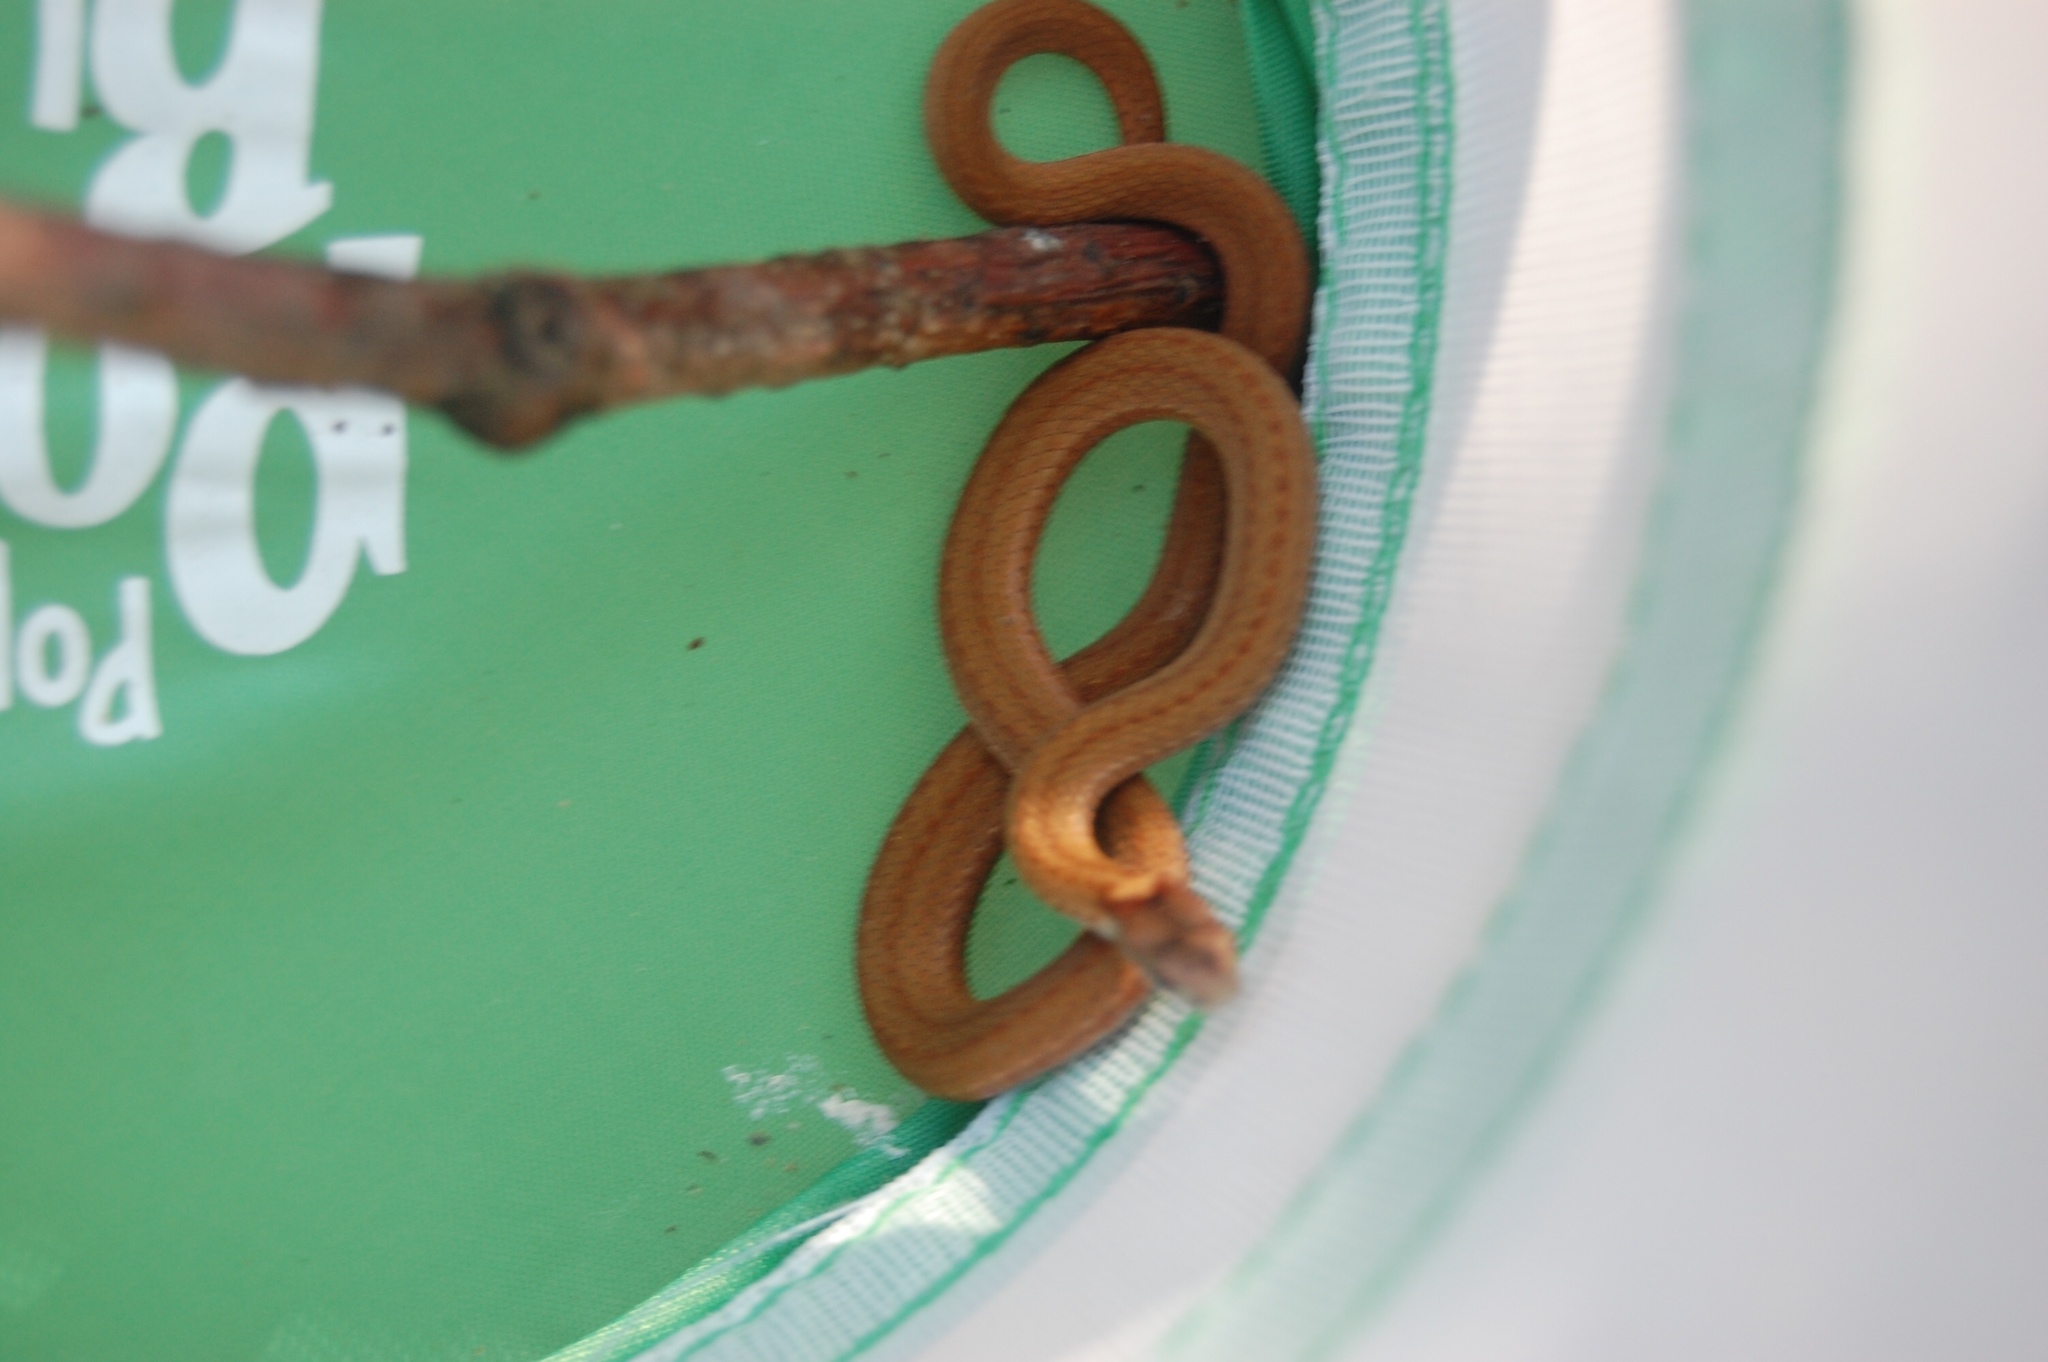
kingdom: Animalia
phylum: Chordata
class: Squamata
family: Colubridae
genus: Storeria
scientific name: Storeria occipitomaculata
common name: Redbelly snake
